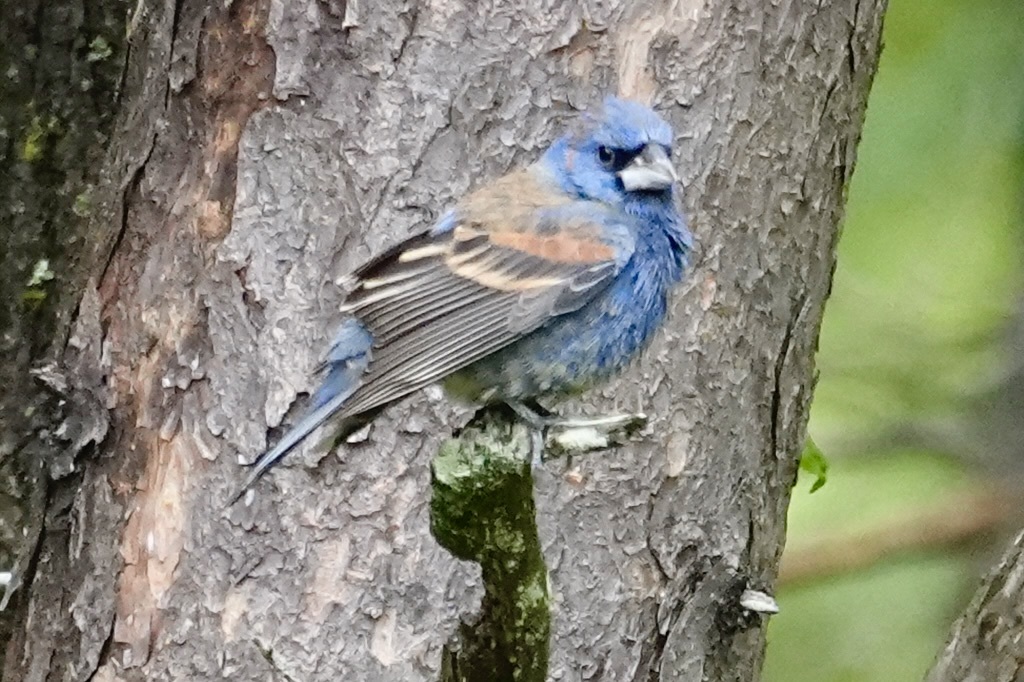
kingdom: Animalia
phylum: Chordata
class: Aves
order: Passeriformes
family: Cardinalidae
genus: Passerina
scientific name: Passerina caerulea
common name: Blue grosbeak
